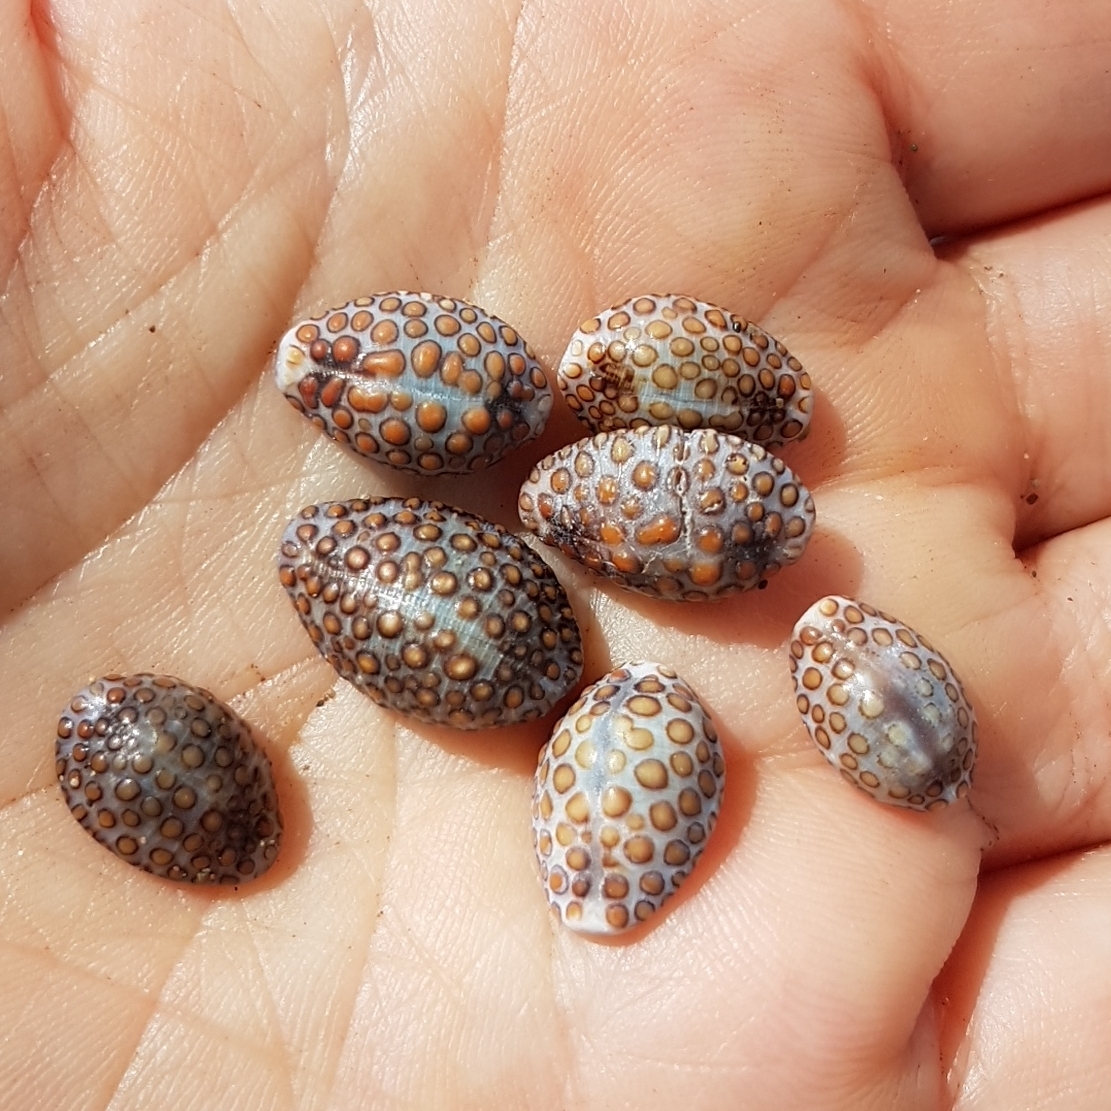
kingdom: Animalia
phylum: Mollusca
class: Gastropoda
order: Littorinimorpha
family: Pediculariidae
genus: Jenneria
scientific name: Jenneria pustulata
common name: Pustuled cowrie
